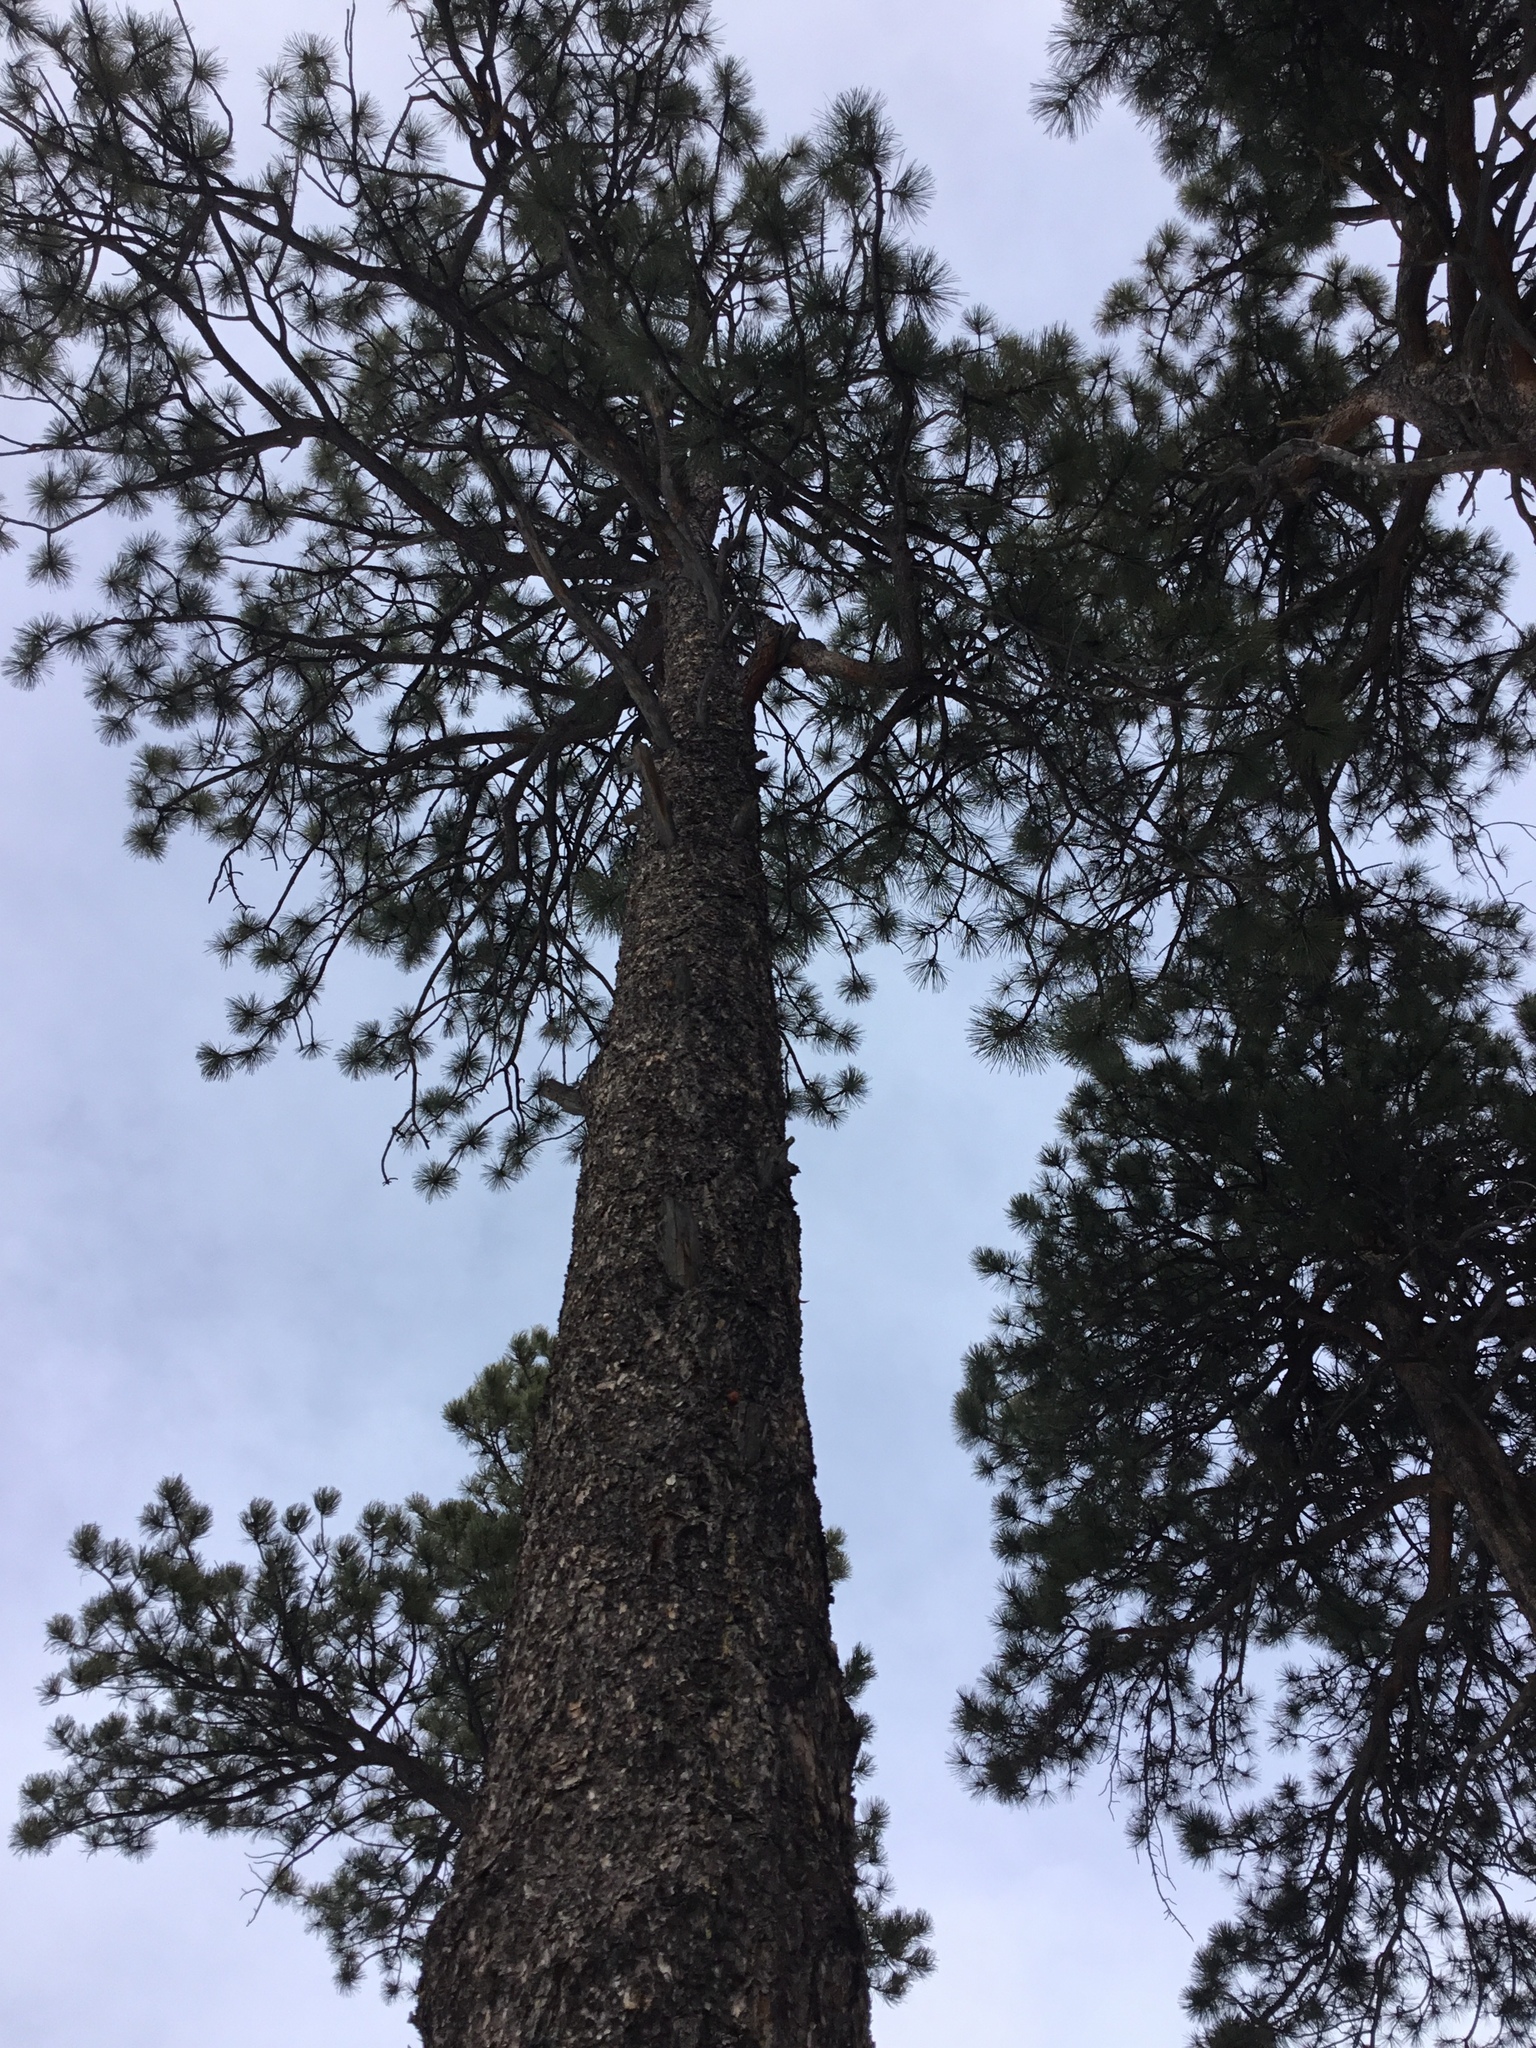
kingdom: Plantae
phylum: Tracheophyta
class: Pinopsida
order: Pinales
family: Pinaceae
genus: Pinus
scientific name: Pinus ponderosa
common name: Western yellow-pine
